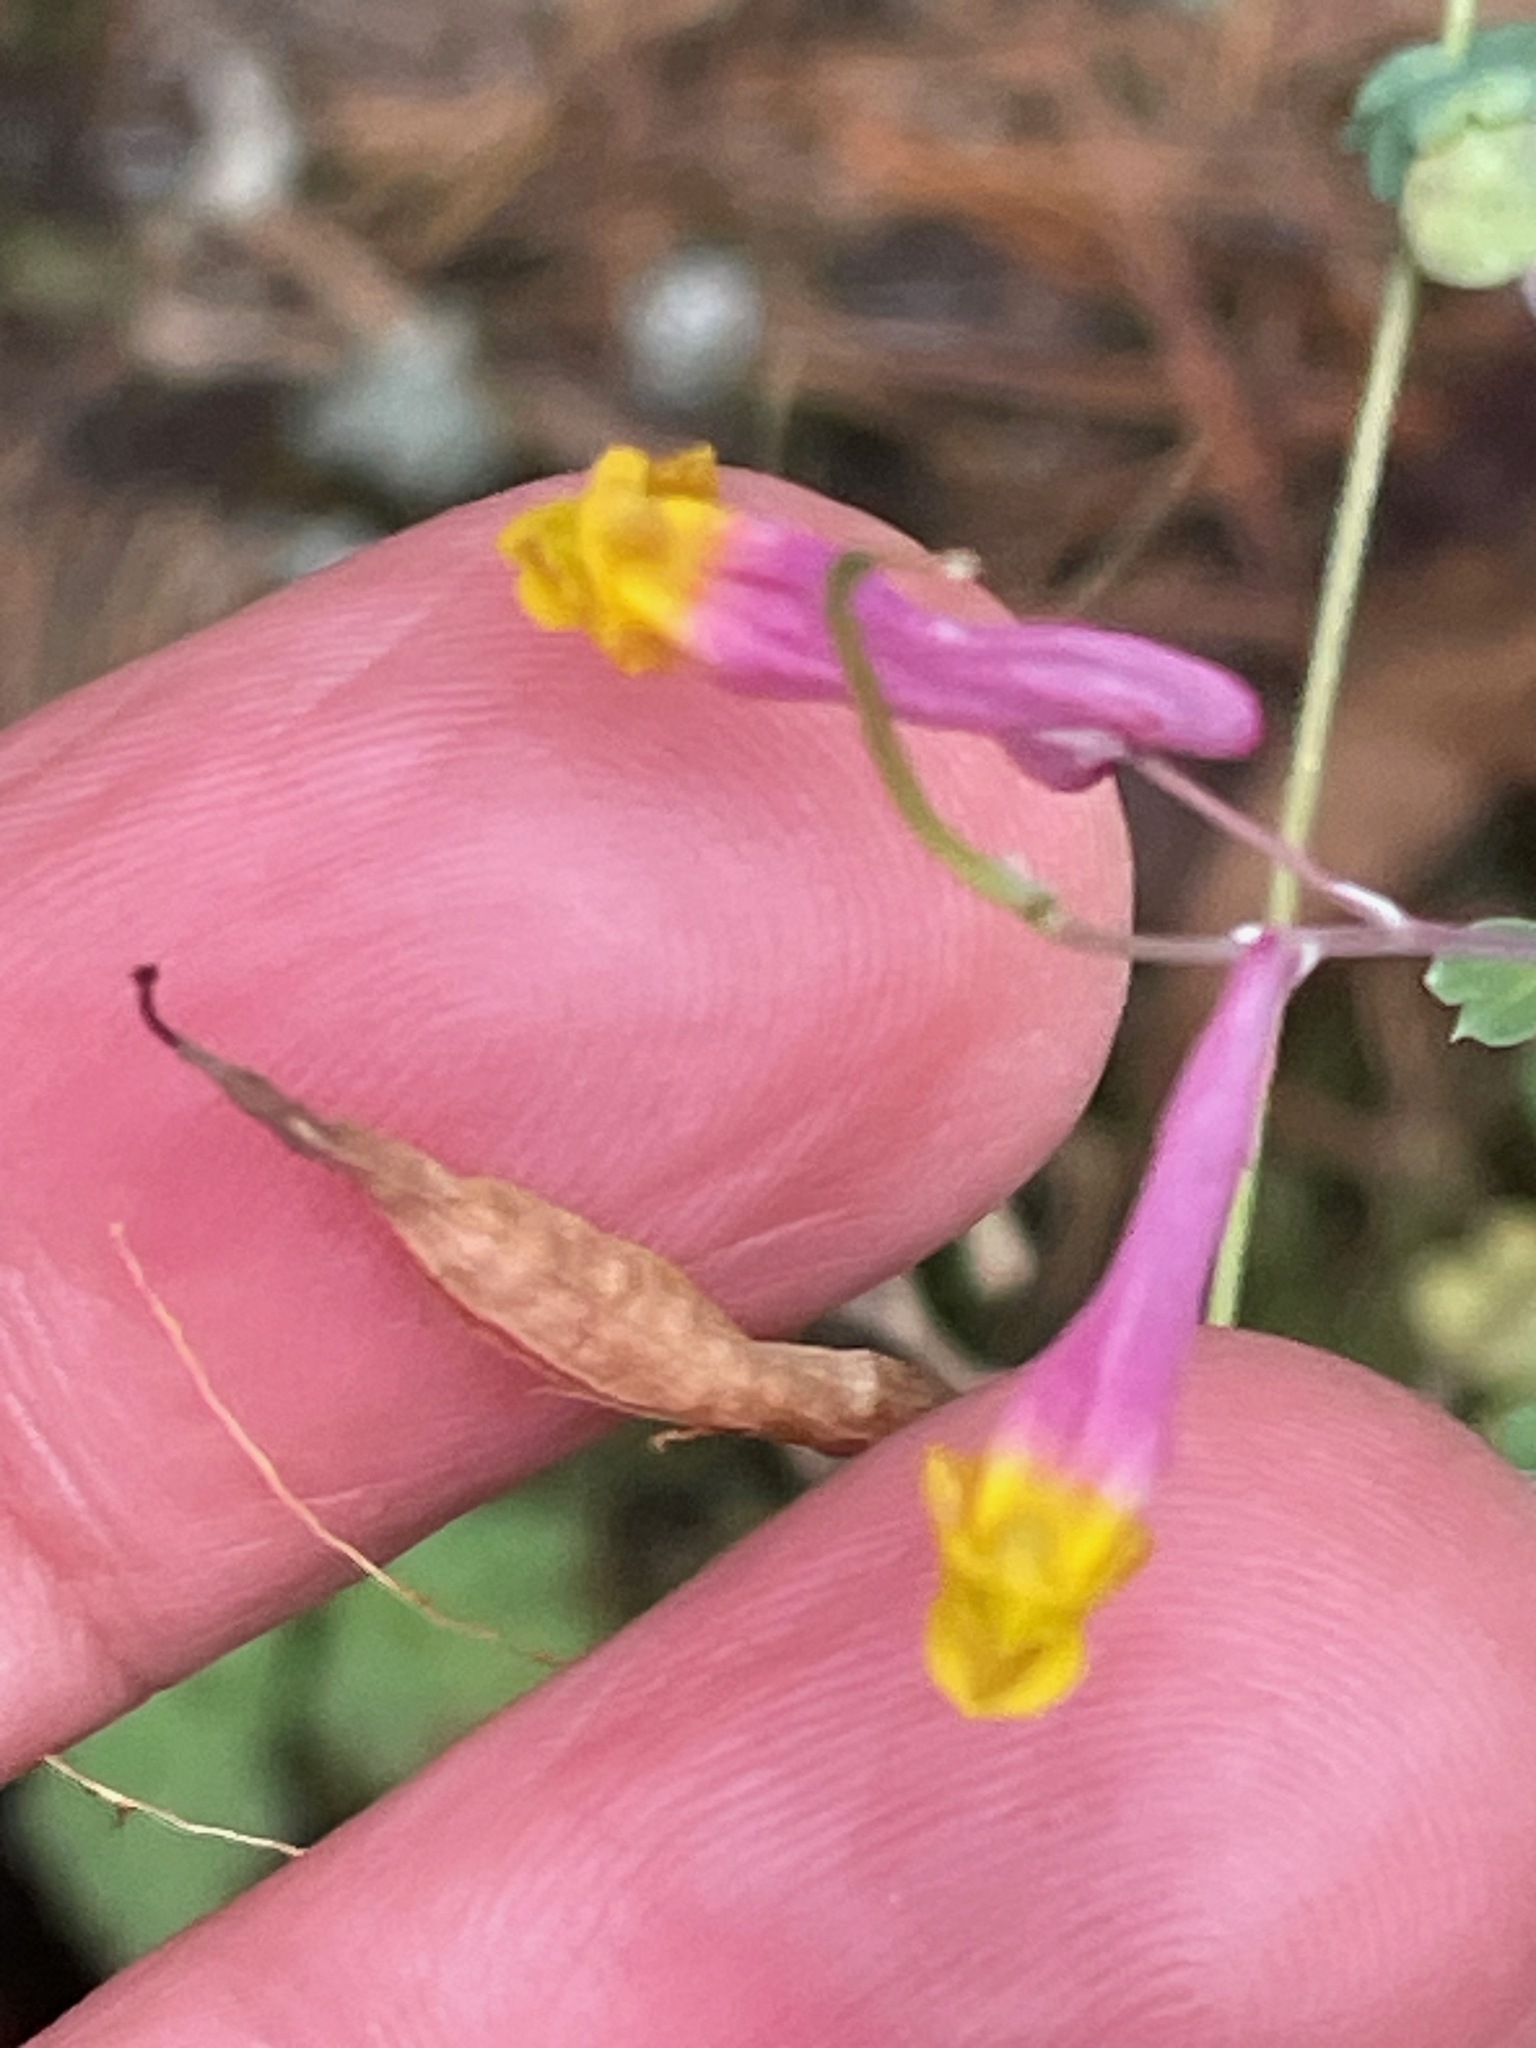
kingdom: Plantae
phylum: Tracheophyta
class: Magnoliopsida
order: Ranunculales
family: Papaveraceae
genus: Capnoides
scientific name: Capnoides sempervirens
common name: Rock harlequin
